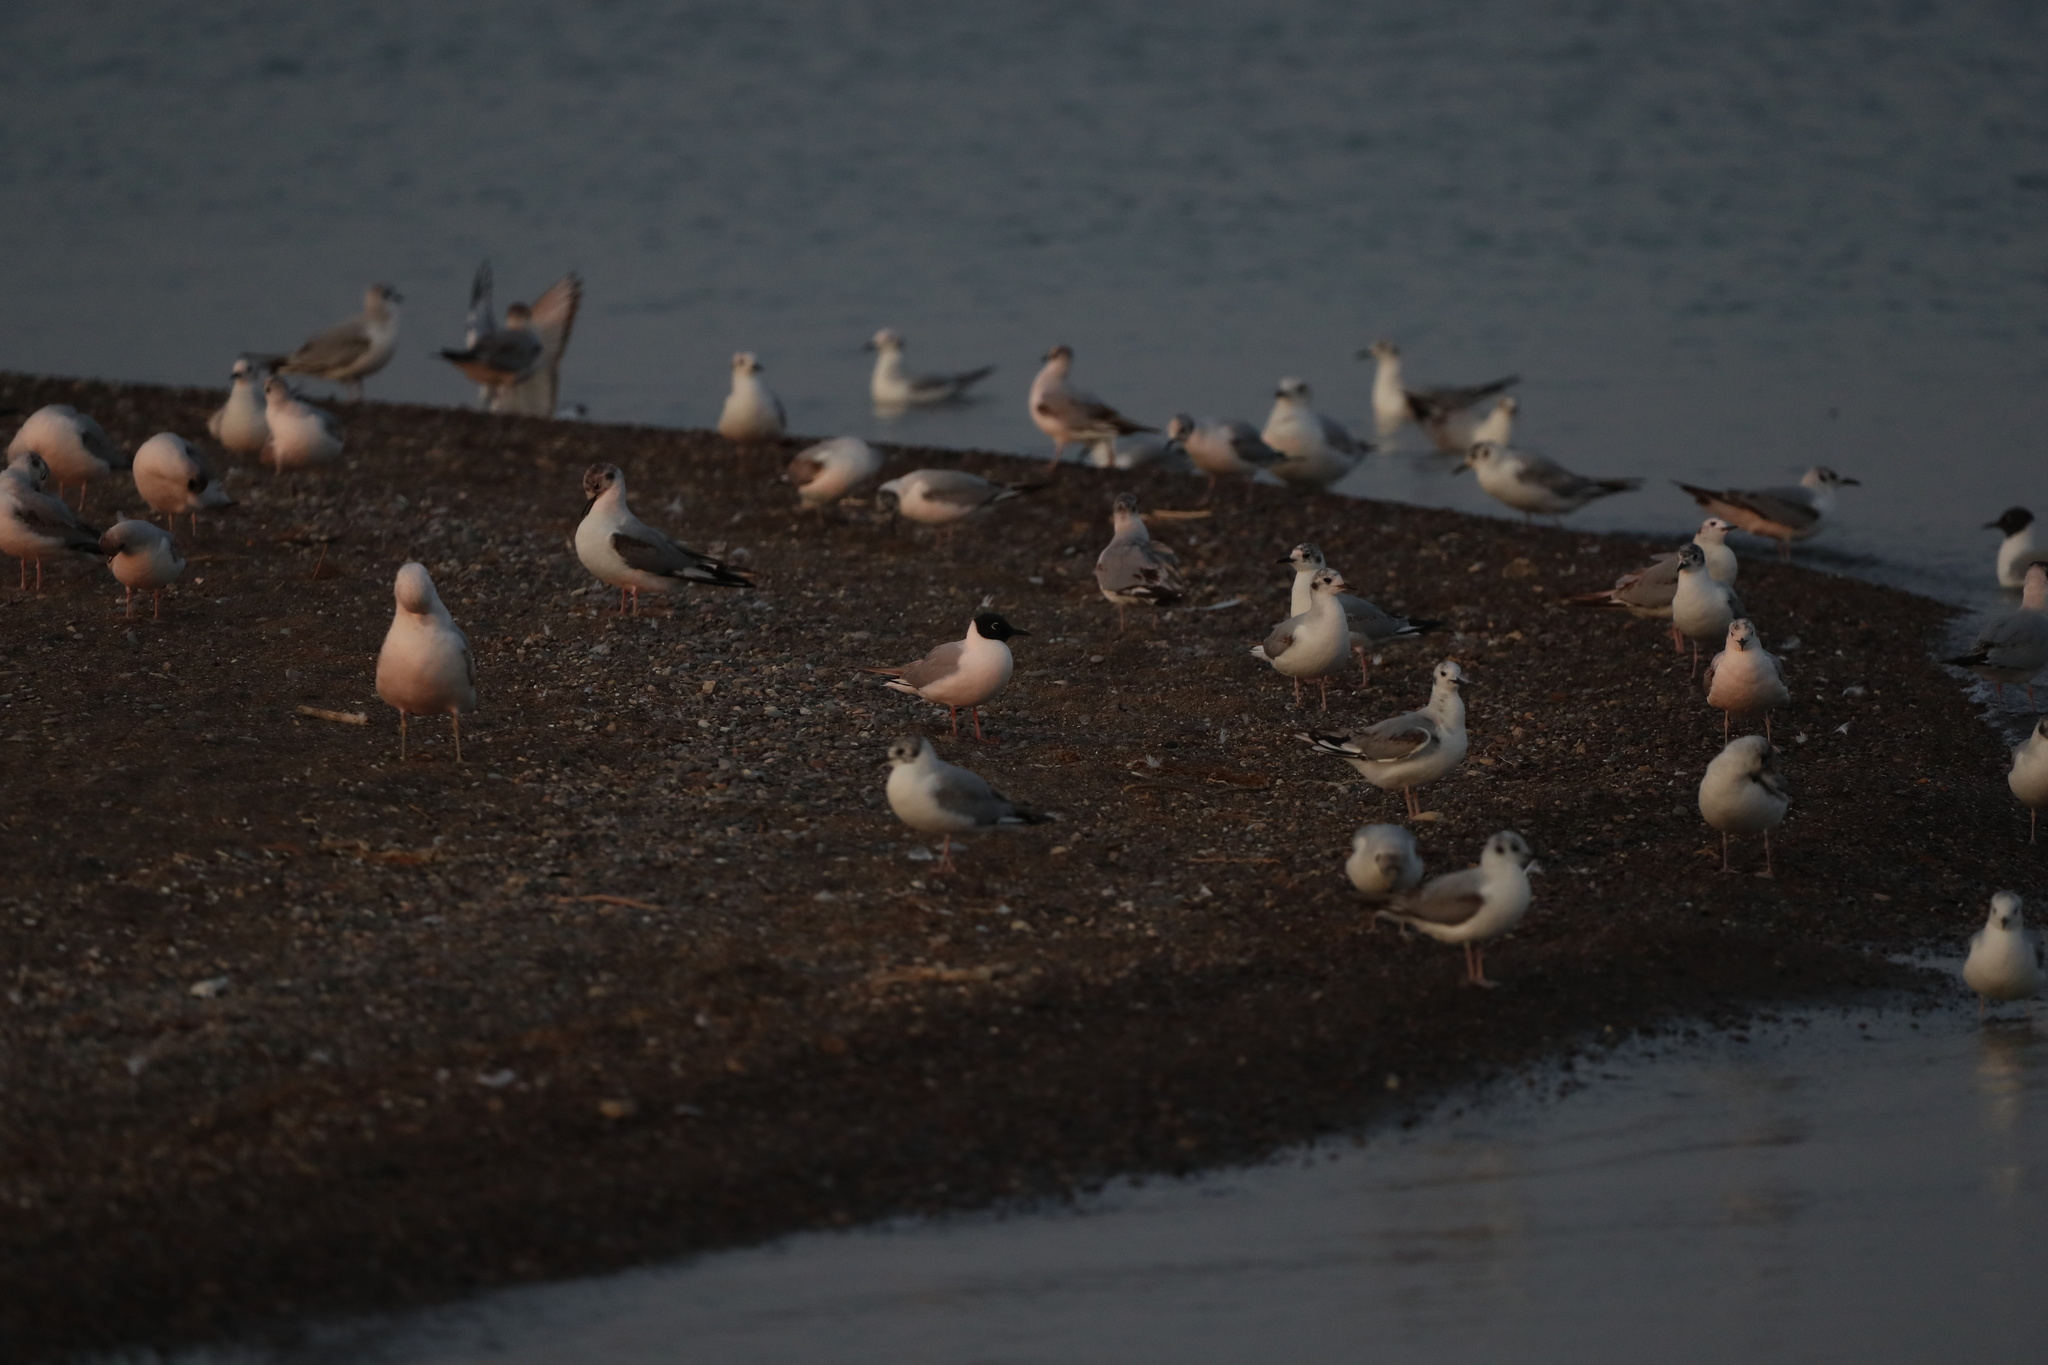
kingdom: Animalia
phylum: Chordata
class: Aves
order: Charadriiformes
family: Laridae
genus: Chroicocephalus
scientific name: Chroicocephalus philadelphia
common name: Bonaparte's gull
